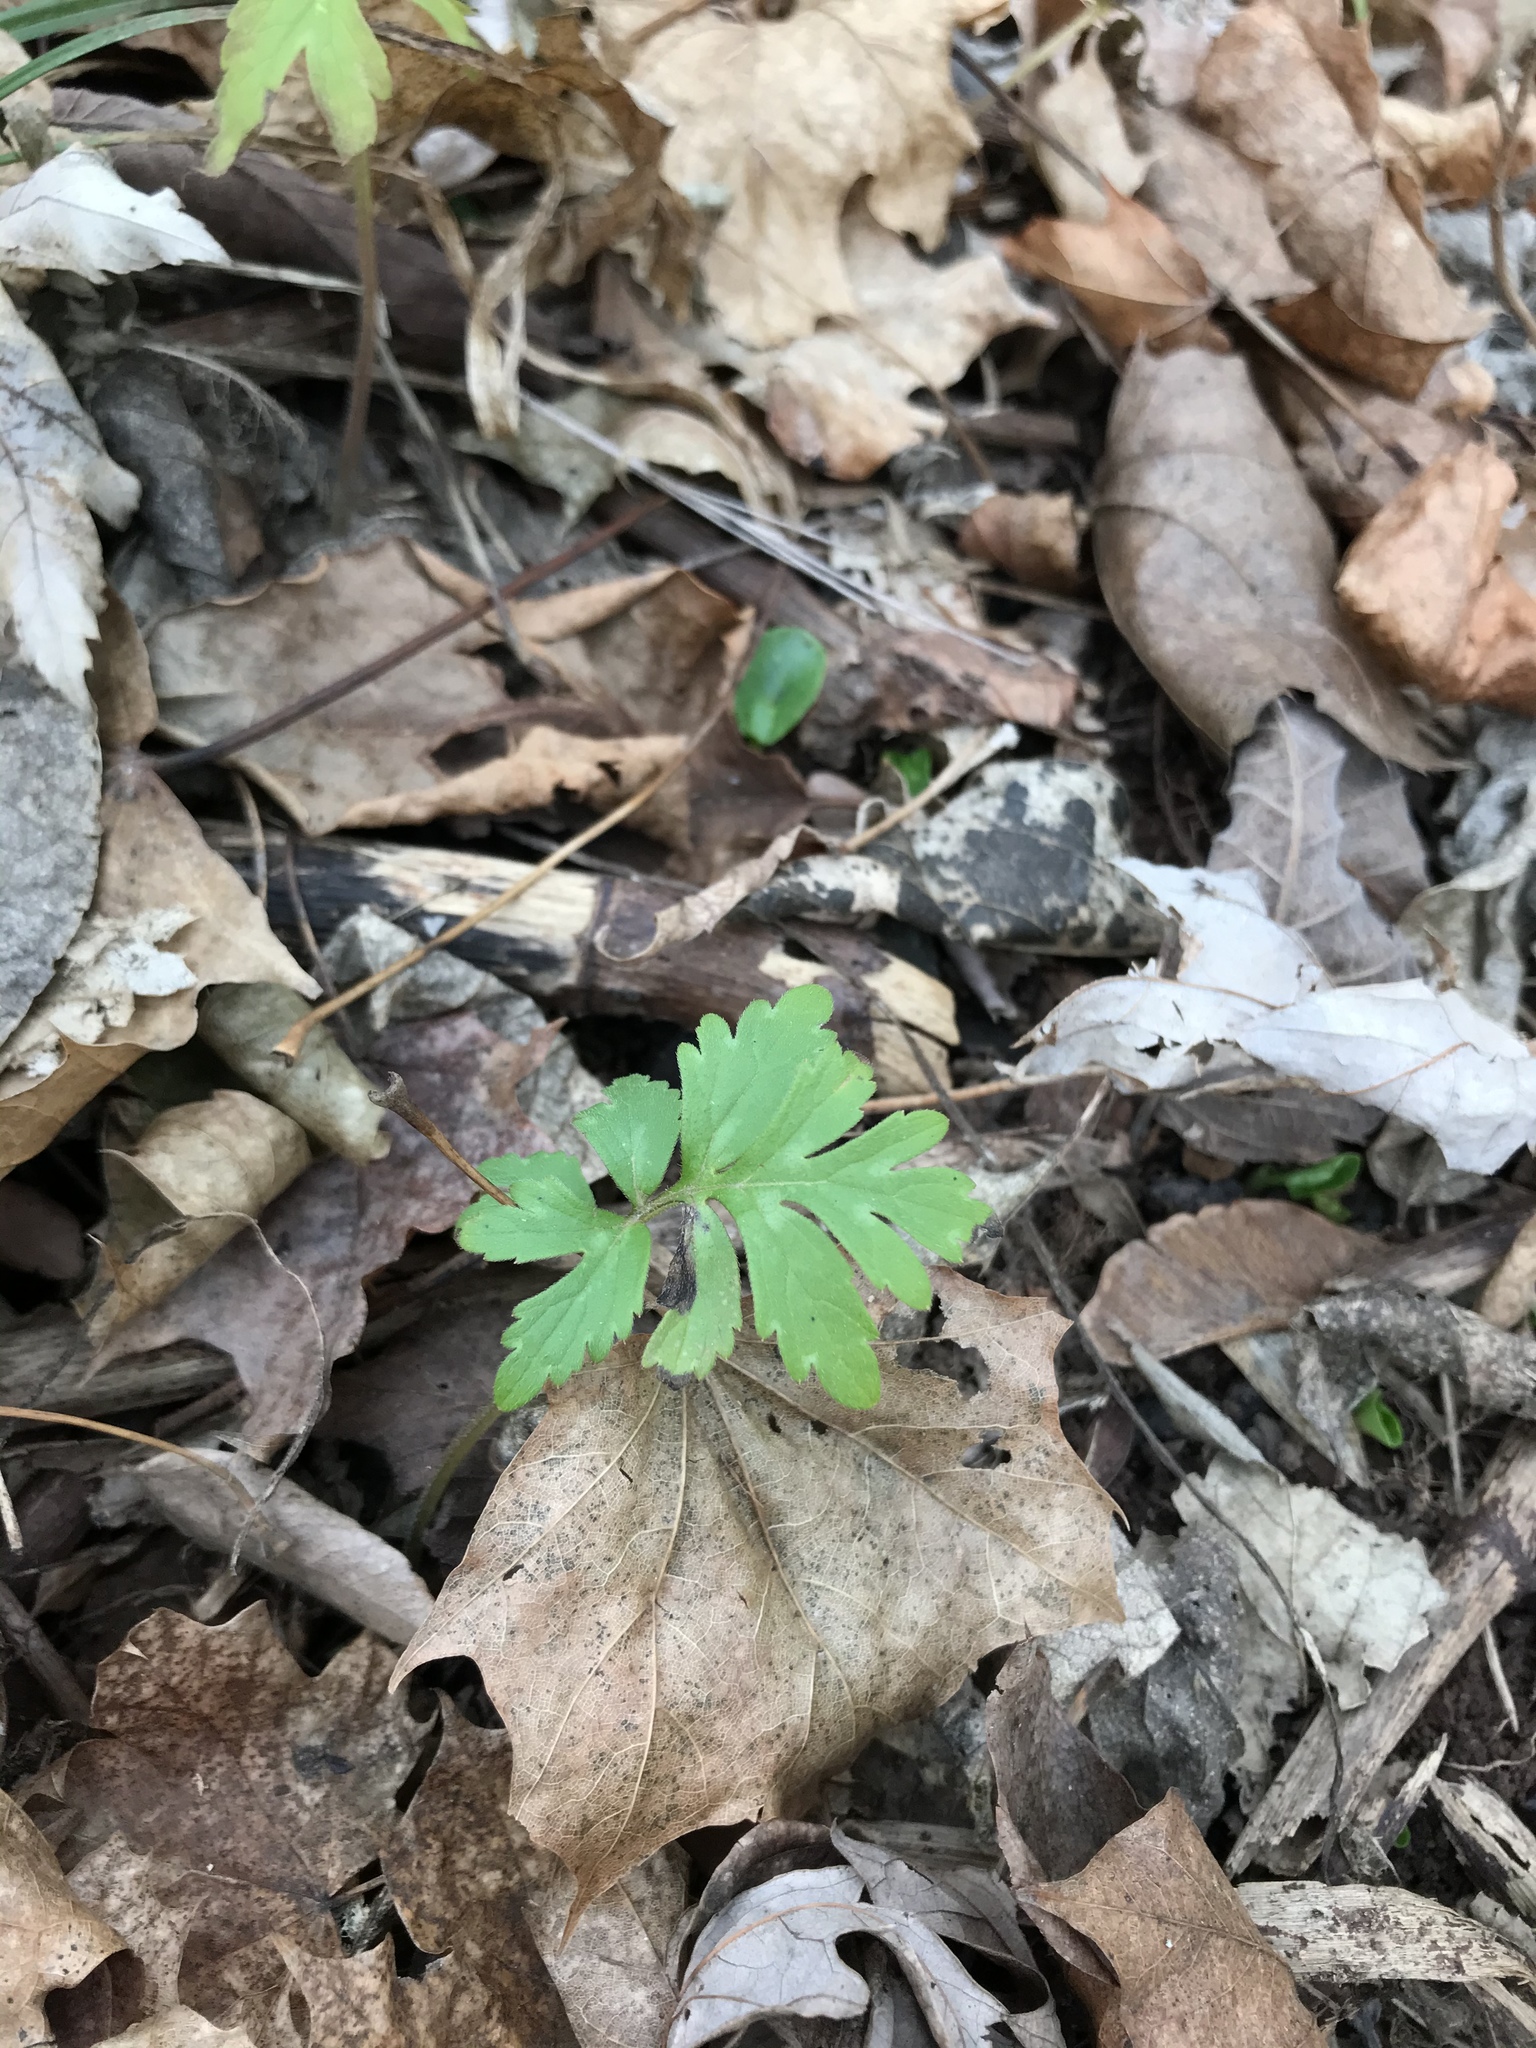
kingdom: Plantae
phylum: Tracheophyta
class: Magnoliopsida
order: Boraginales
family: Hydrophyllaceae
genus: Hydrophyllum
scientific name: Hydrophyllum virginianum
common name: Virginia waterleaf
